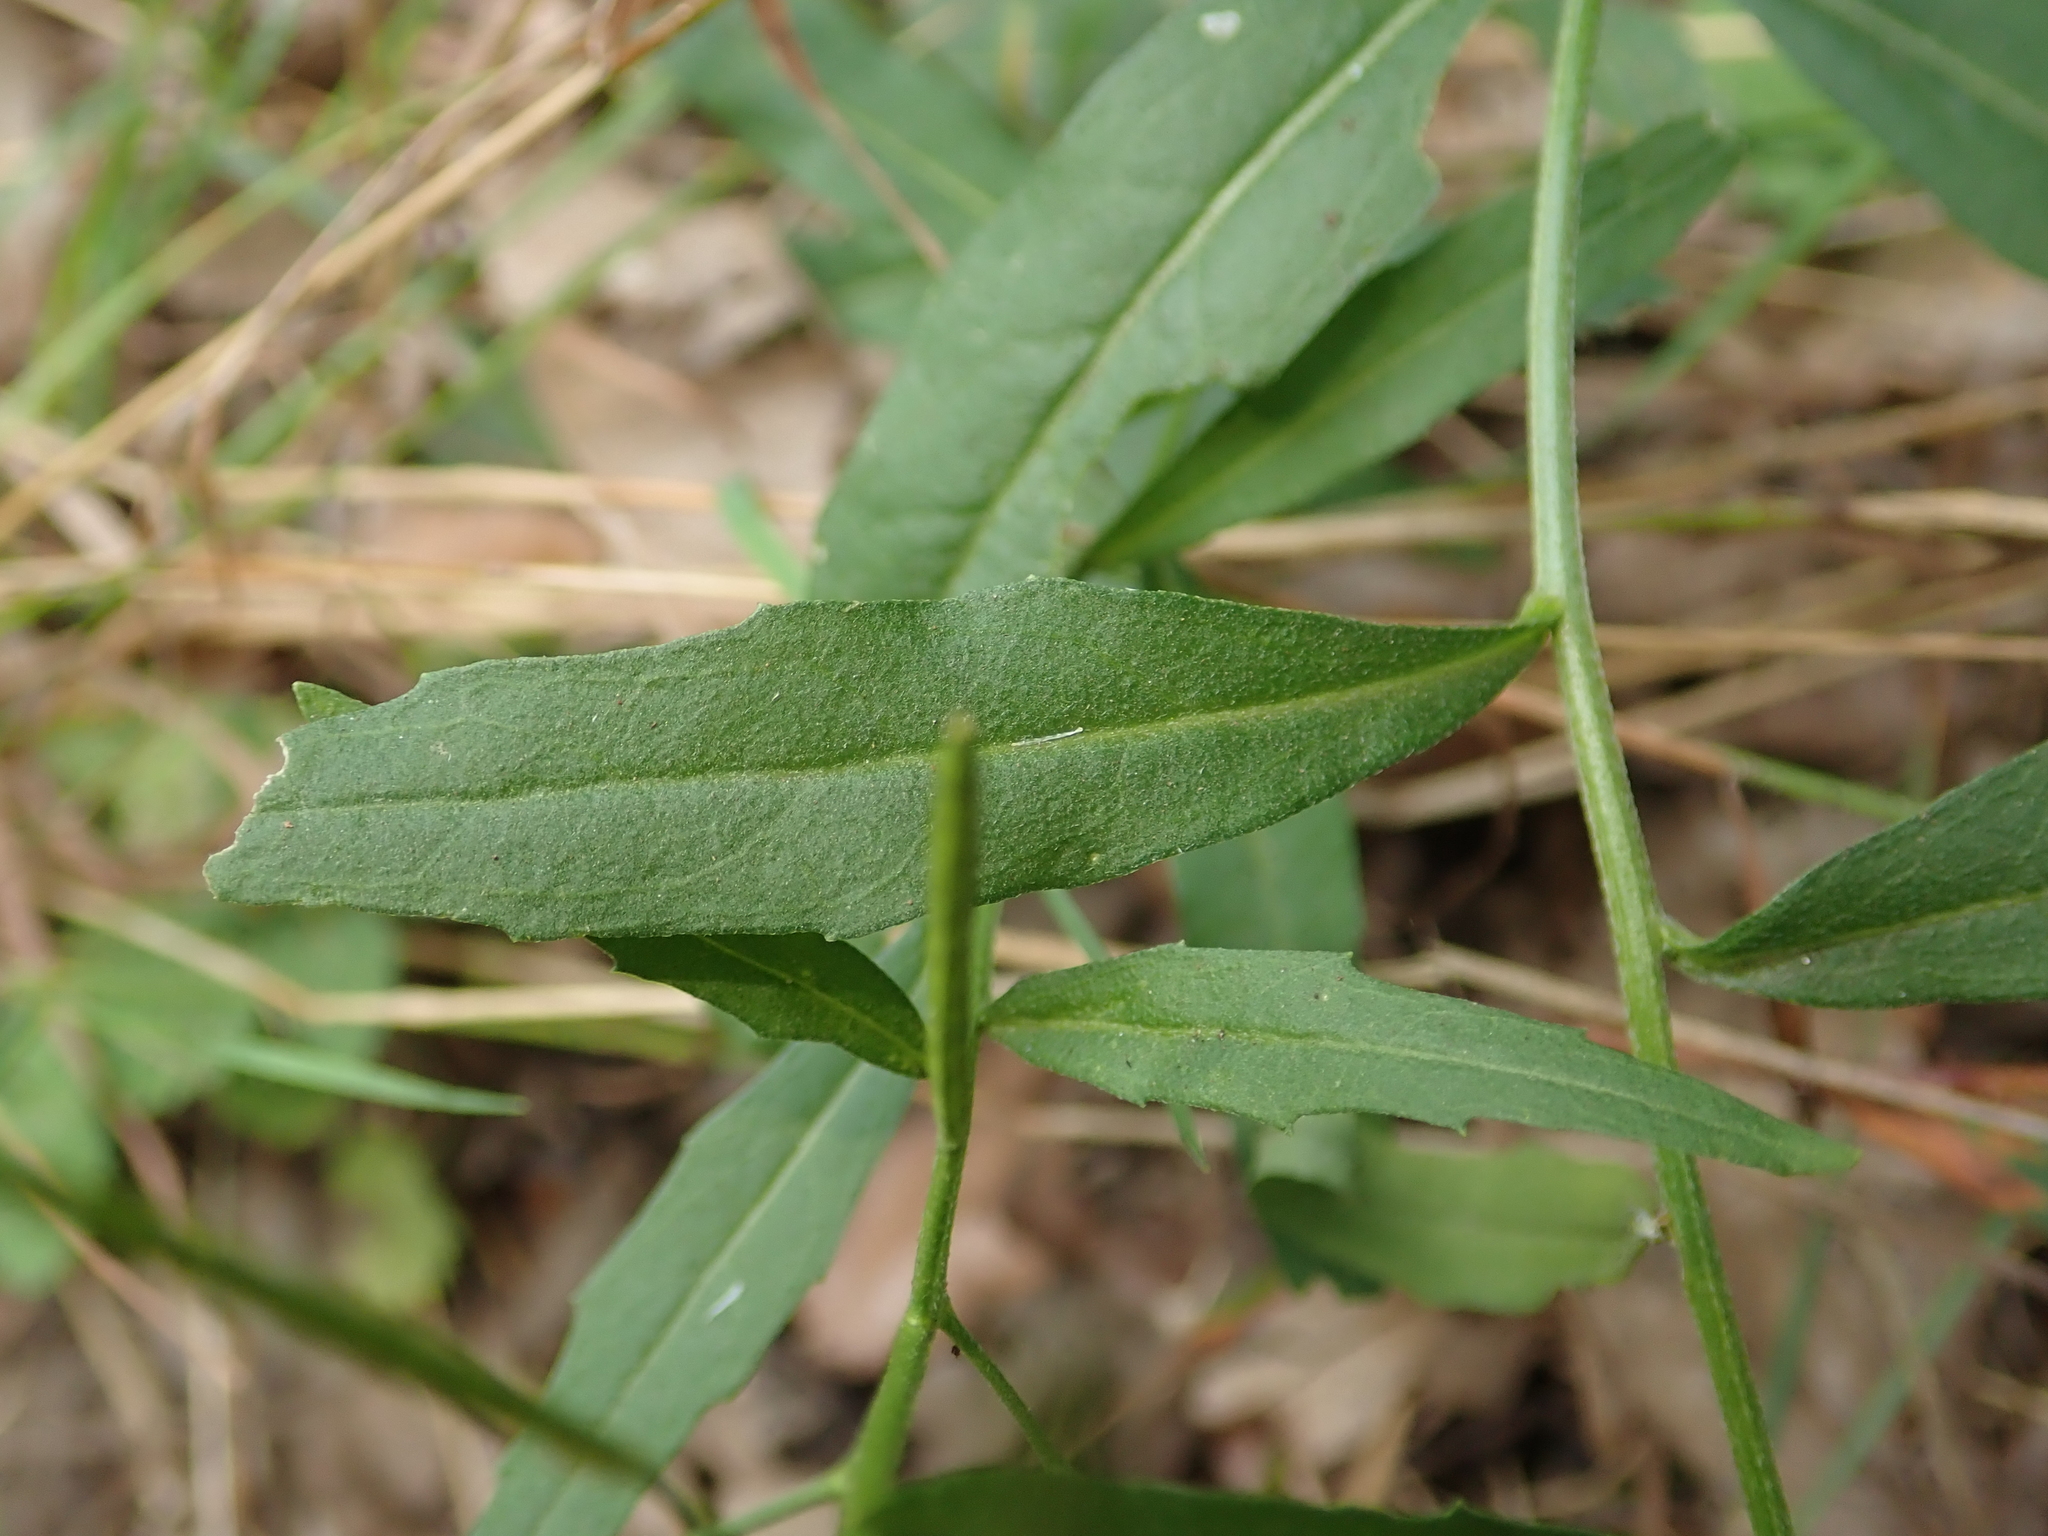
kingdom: Plantae
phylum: Tracheophyta
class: Magnoliopsida
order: Brassicales
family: Brassicaceae
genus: Erysimum
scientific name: Erysimum cheiranthoides
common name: Treacle mustard
